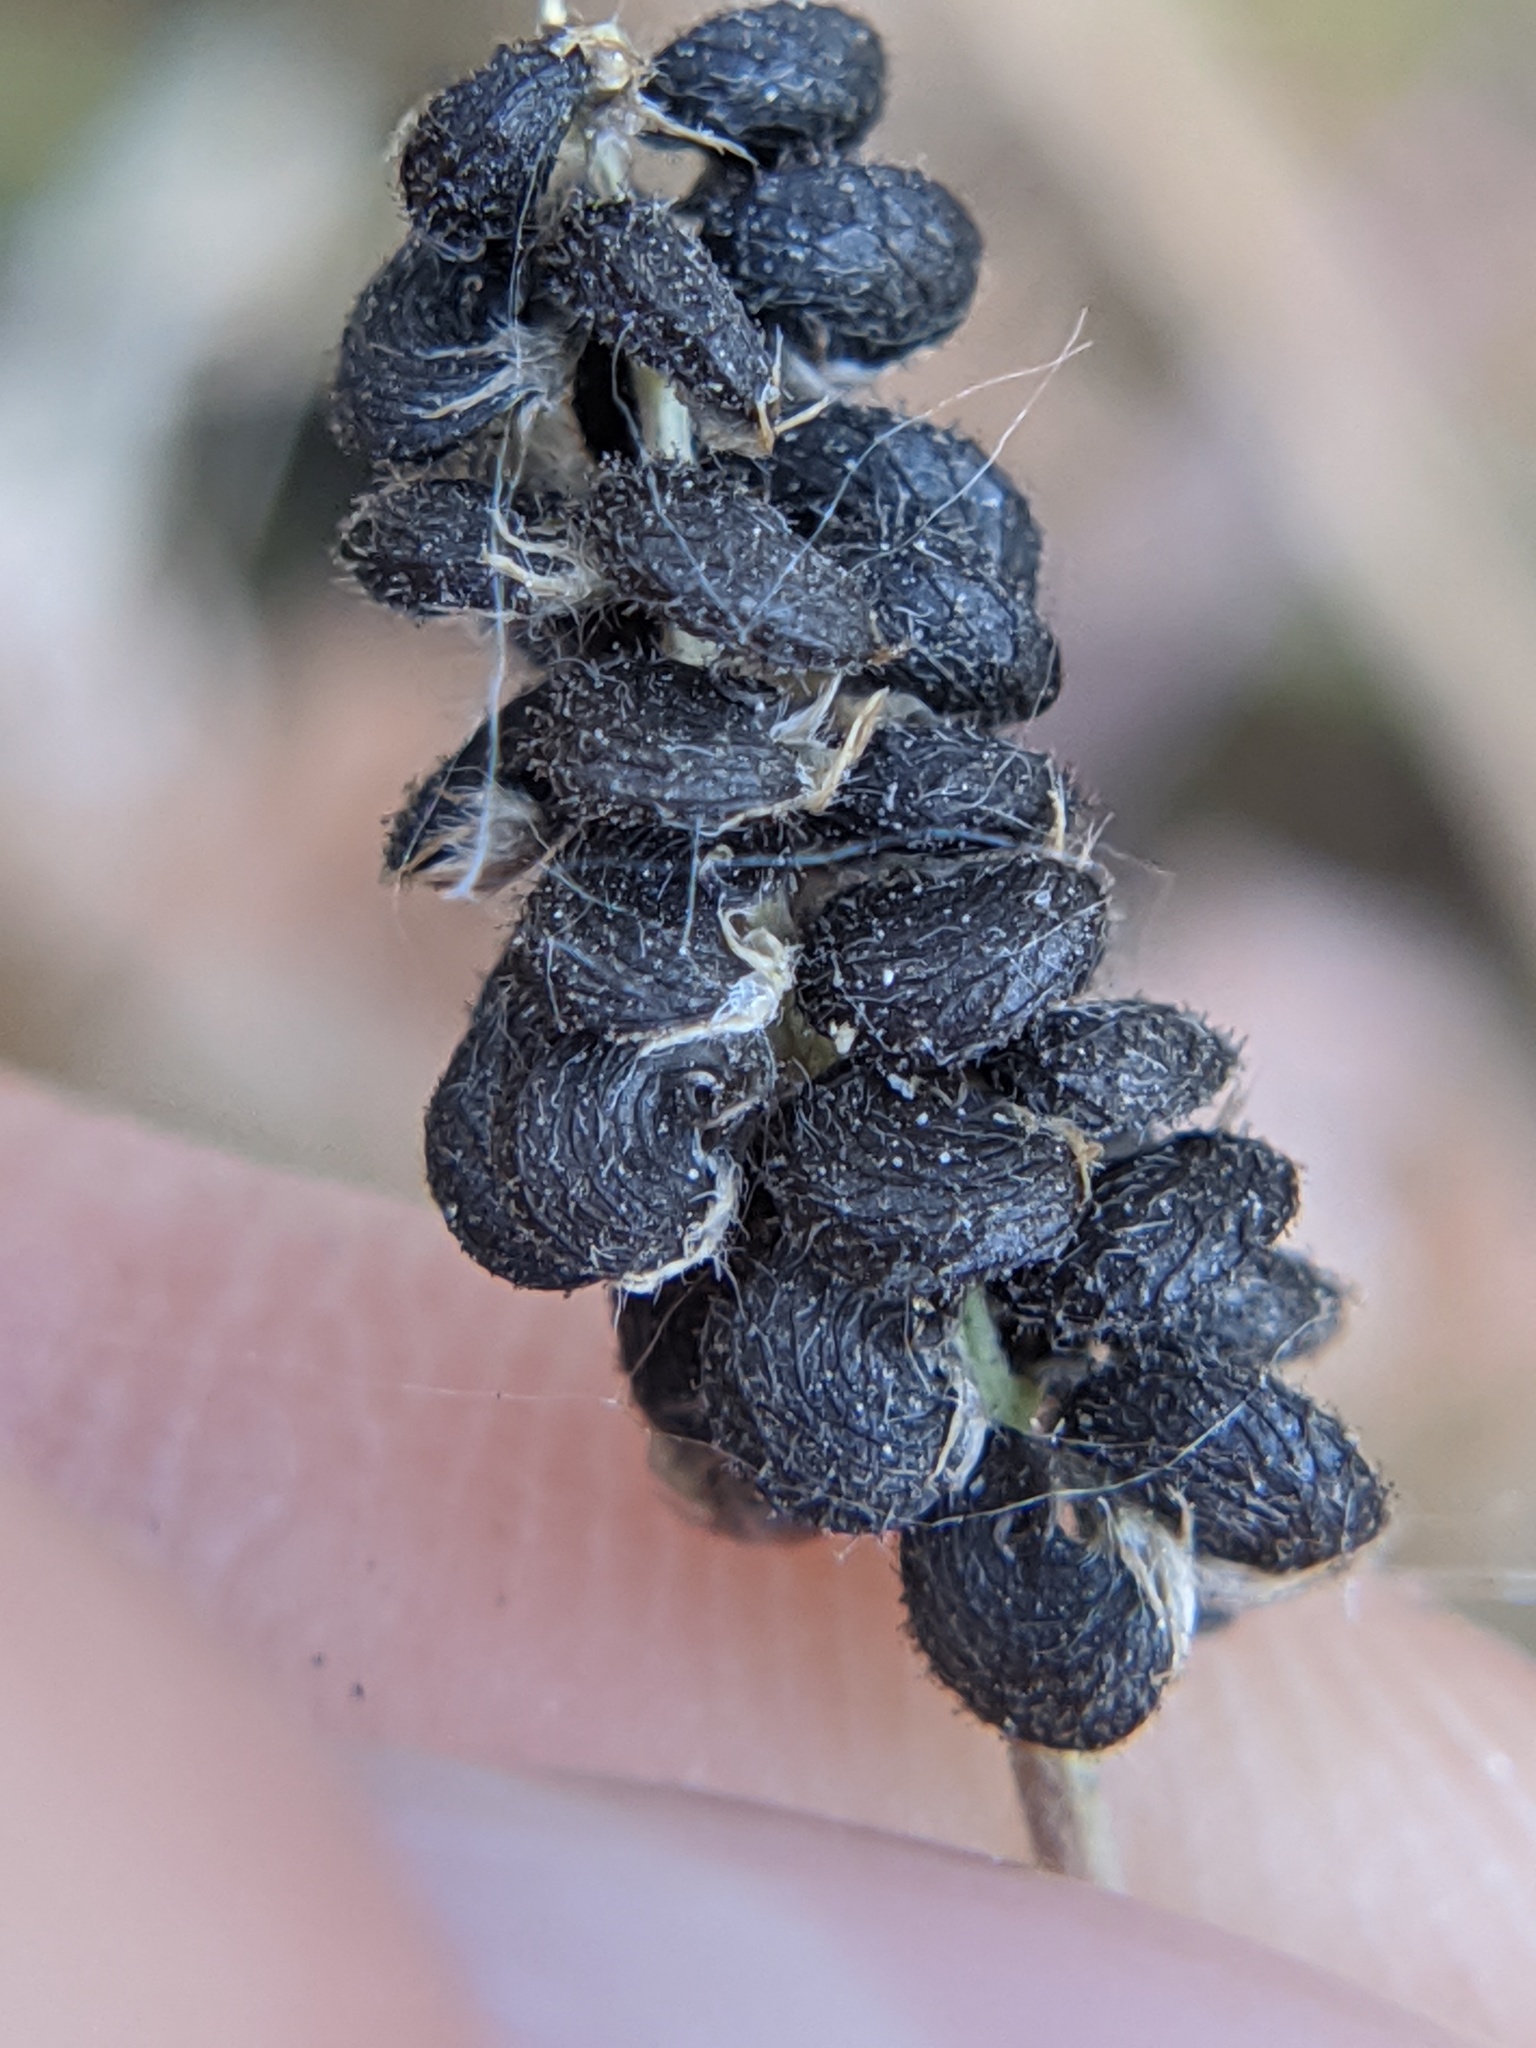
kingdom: Plantae
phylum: Tracheophyta
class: Magnoliopsida
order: Fabales
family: Fabaceae
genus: Medicago
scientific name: Medicago lupulina
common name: Black medick
